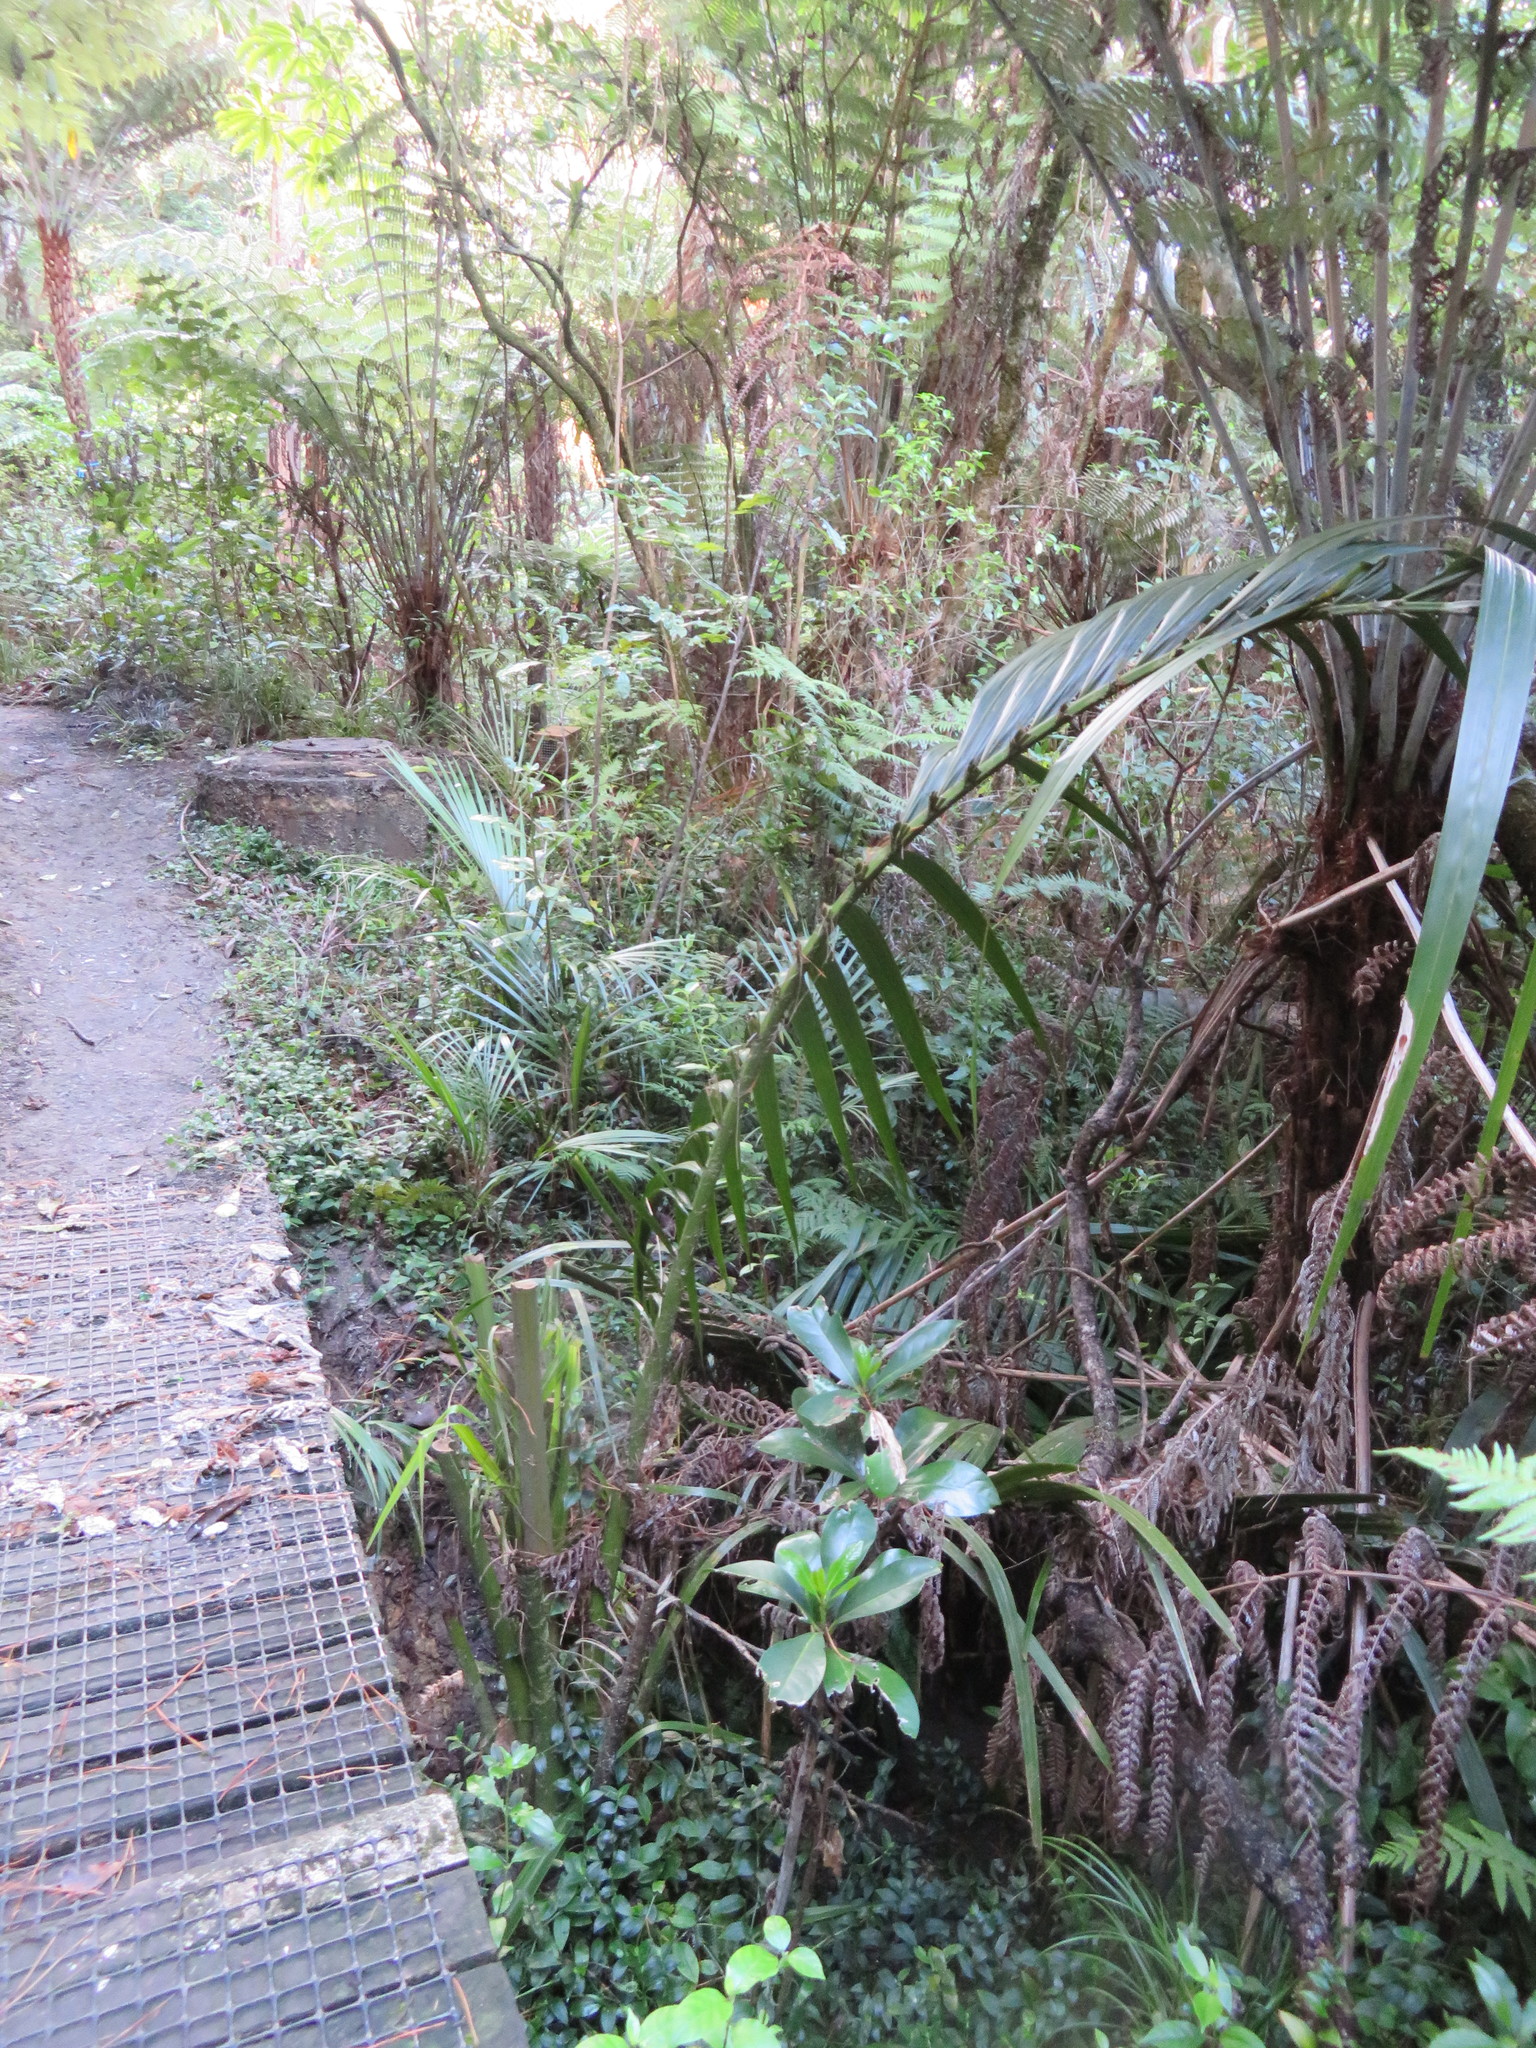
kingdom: Plantae
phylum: Tracheophyta
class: Liliopsida
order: Arecales
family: Arecaceae
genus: Rhopalostylis
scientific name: Rhopalostylis sapida
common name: Feather-duster palm
